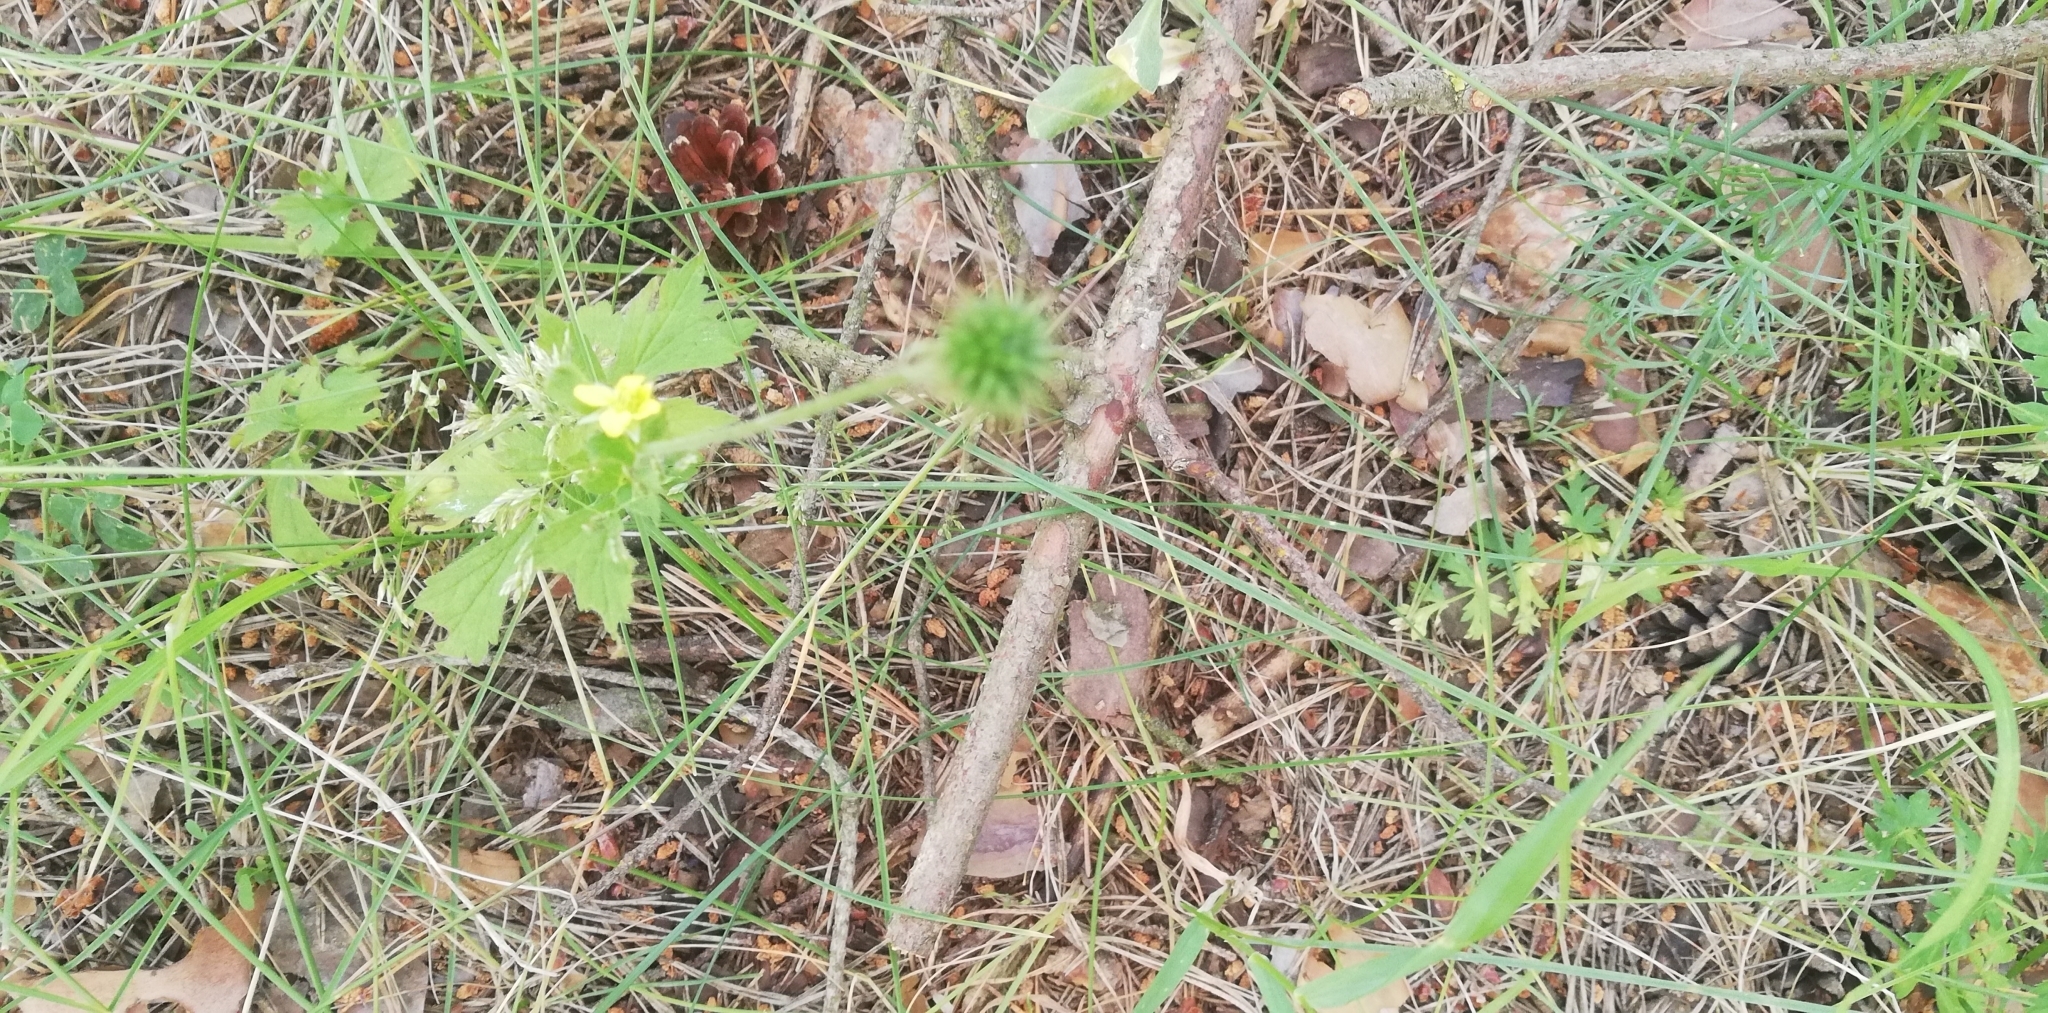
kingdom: Plantae
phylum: Tracheophyta
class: Magnoliopsida
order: Rosales
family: Rosaceae
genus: Geum
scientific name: Geum urbanum
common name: Wood avens
